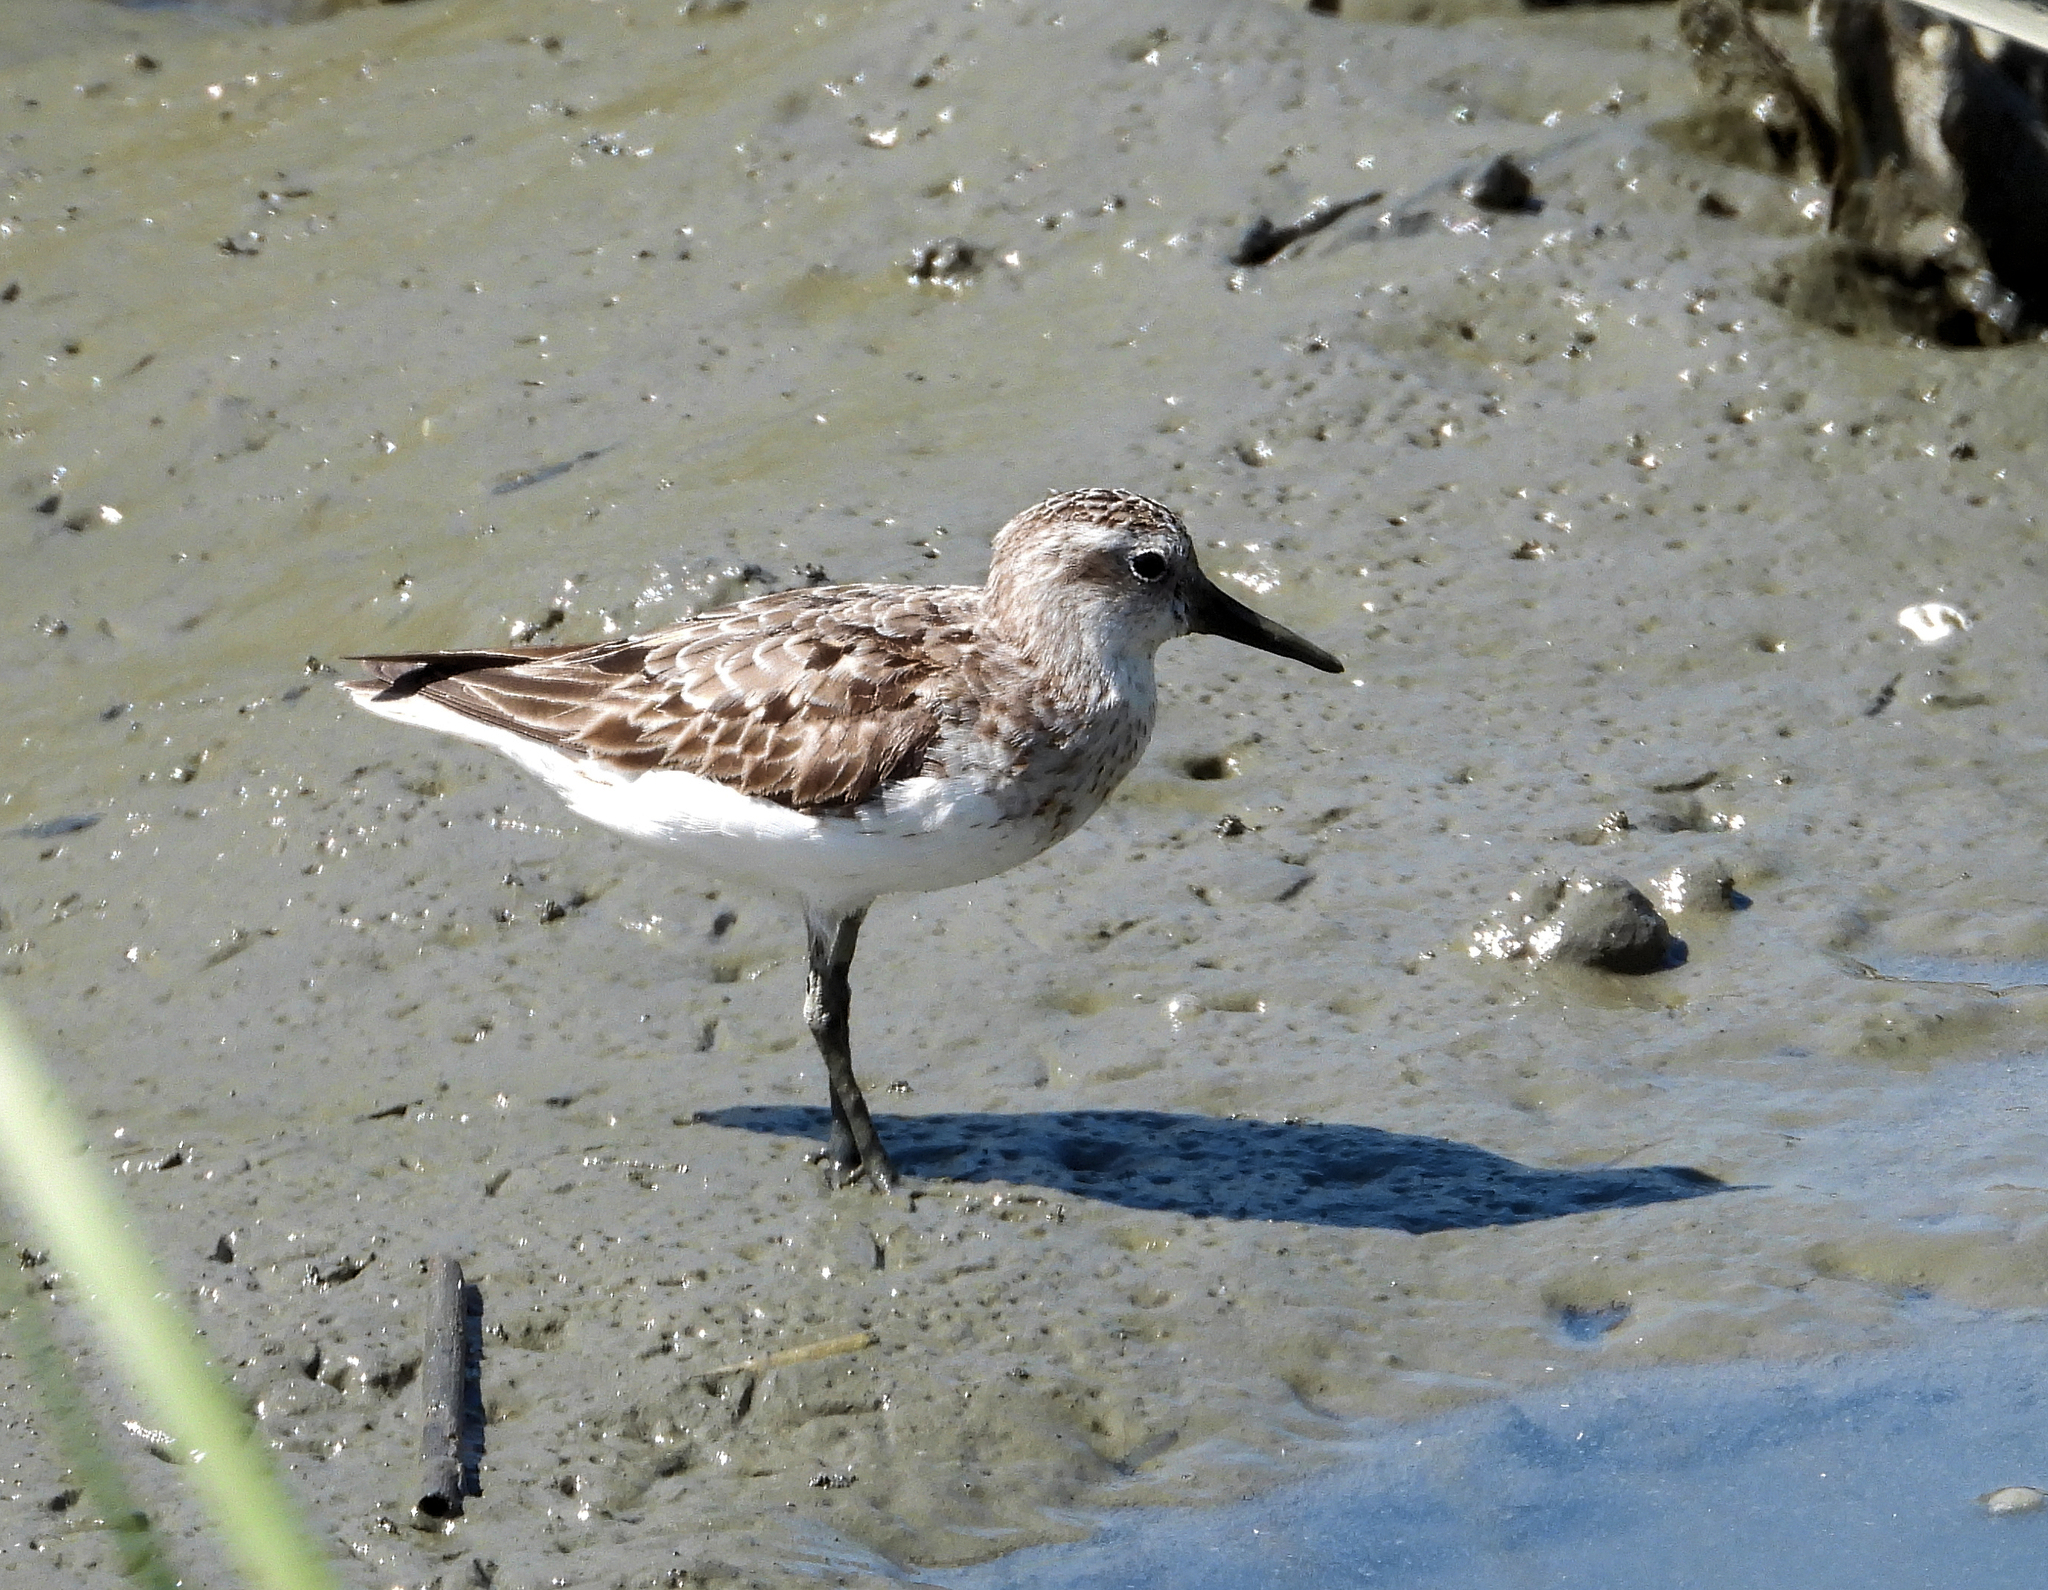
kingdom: Animalia
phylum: Chordata
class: Aves
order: Charadriiformes
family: Scolopacidae
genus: Calidris
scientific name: Calidris pusilla
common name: Semipalmated sandpiper
